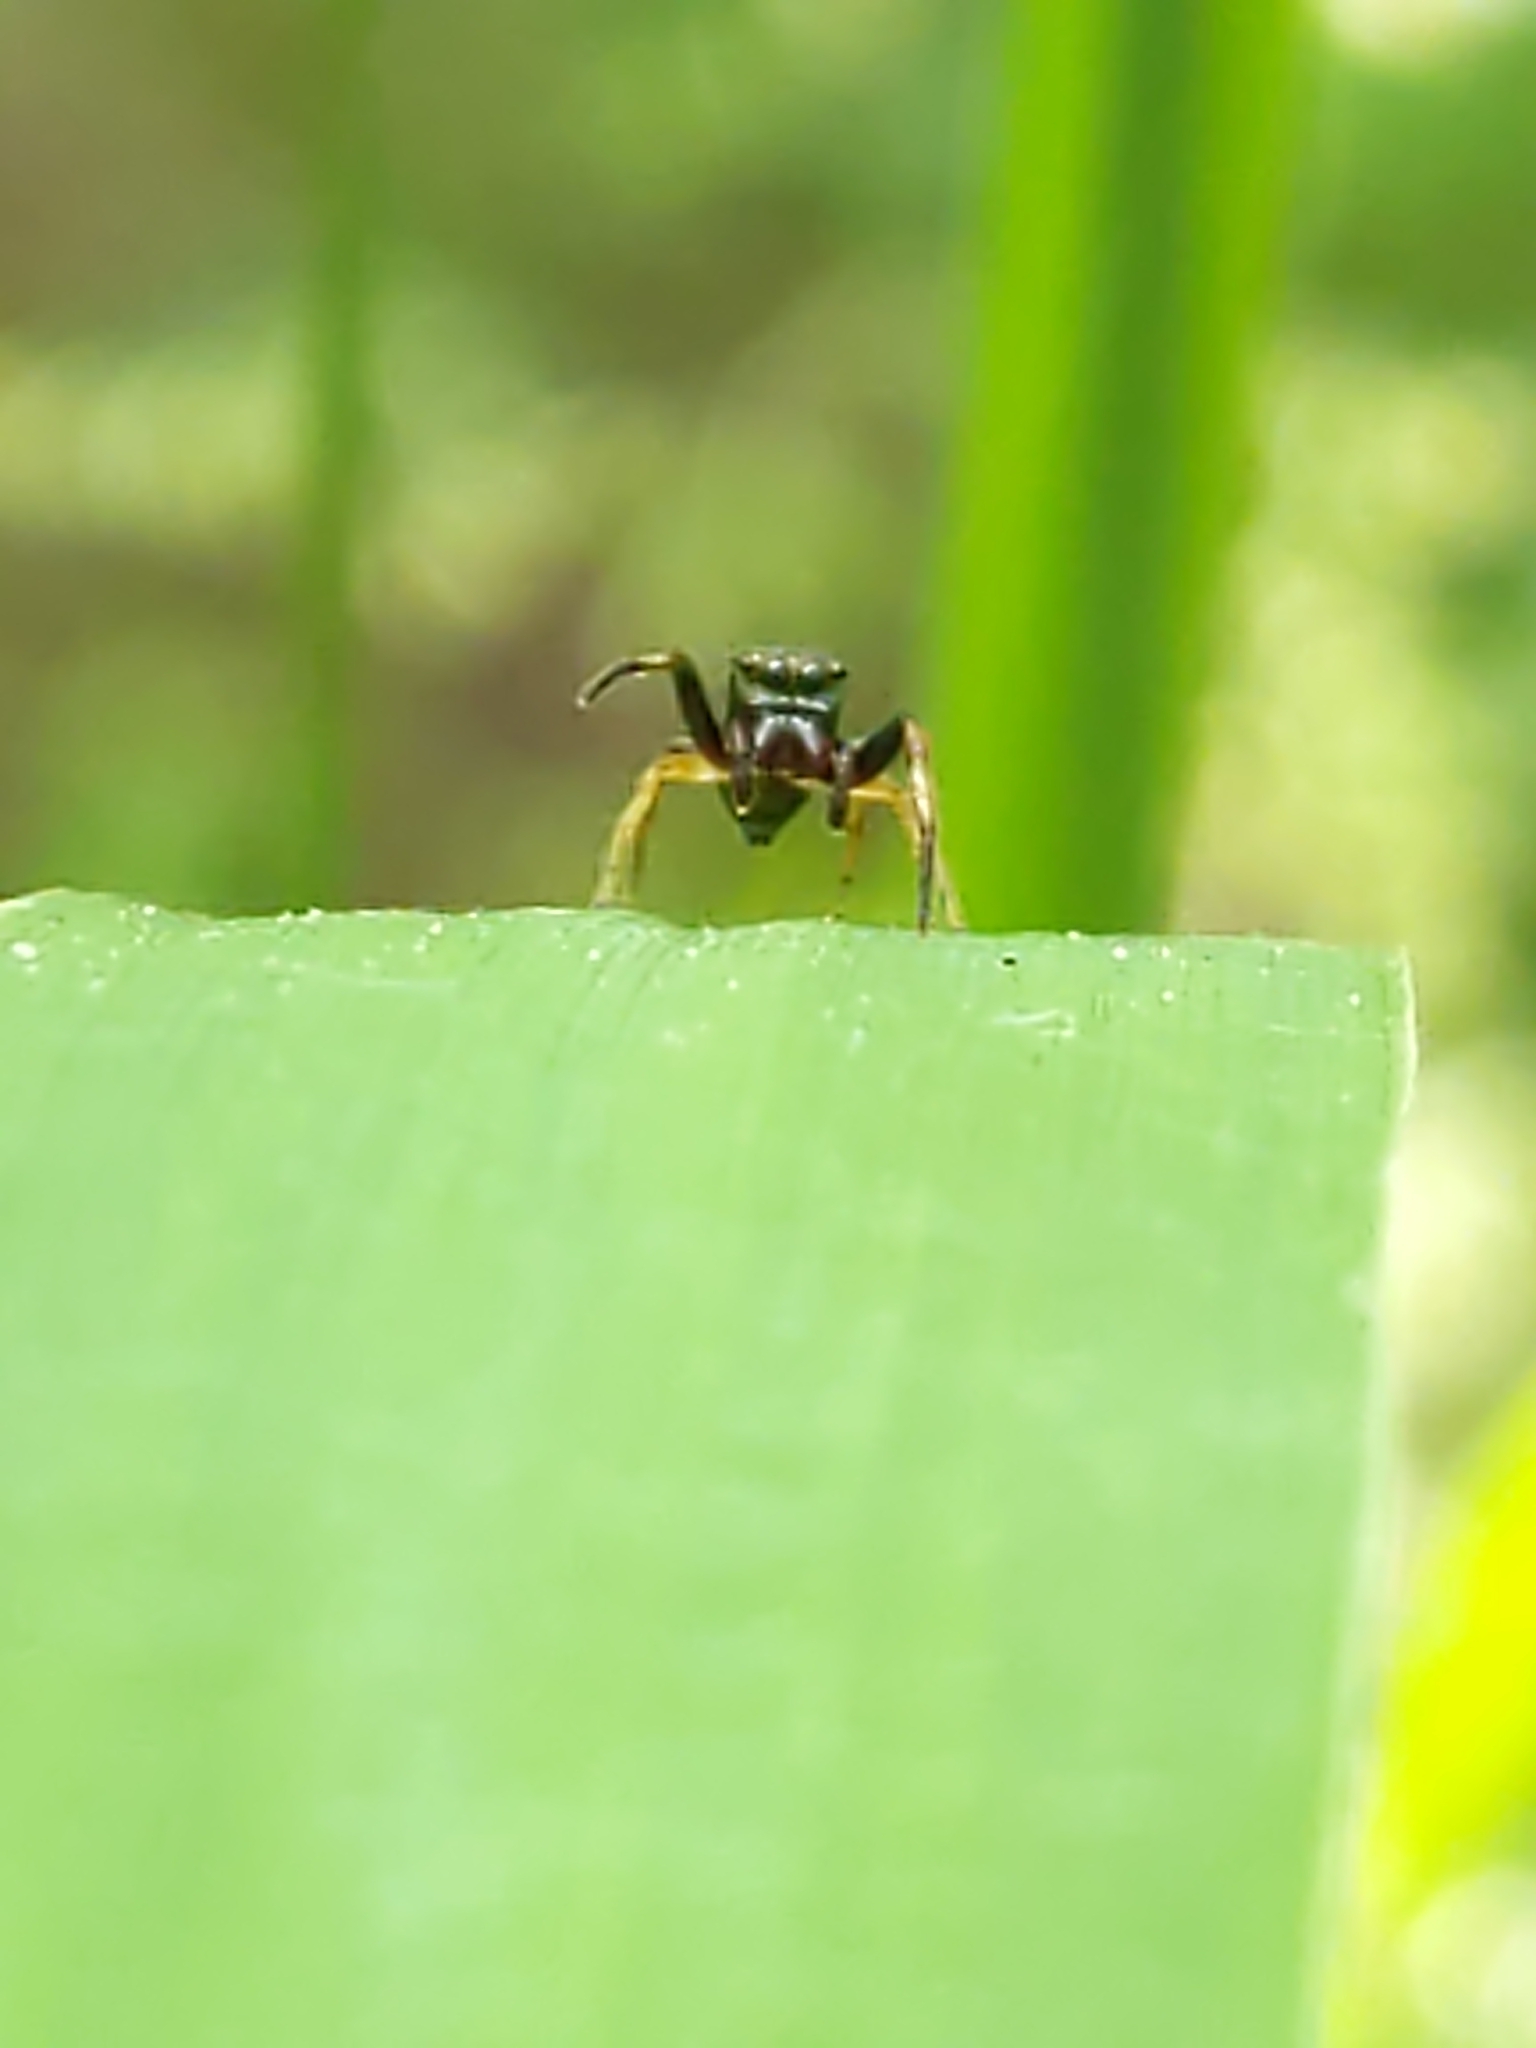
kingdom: Animalia
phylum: Arthropoda
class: Arachnida
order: Araneae
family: Salticidae
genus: Zygoballus
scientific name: Zygoballus rufipes
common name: Jumping spiders
